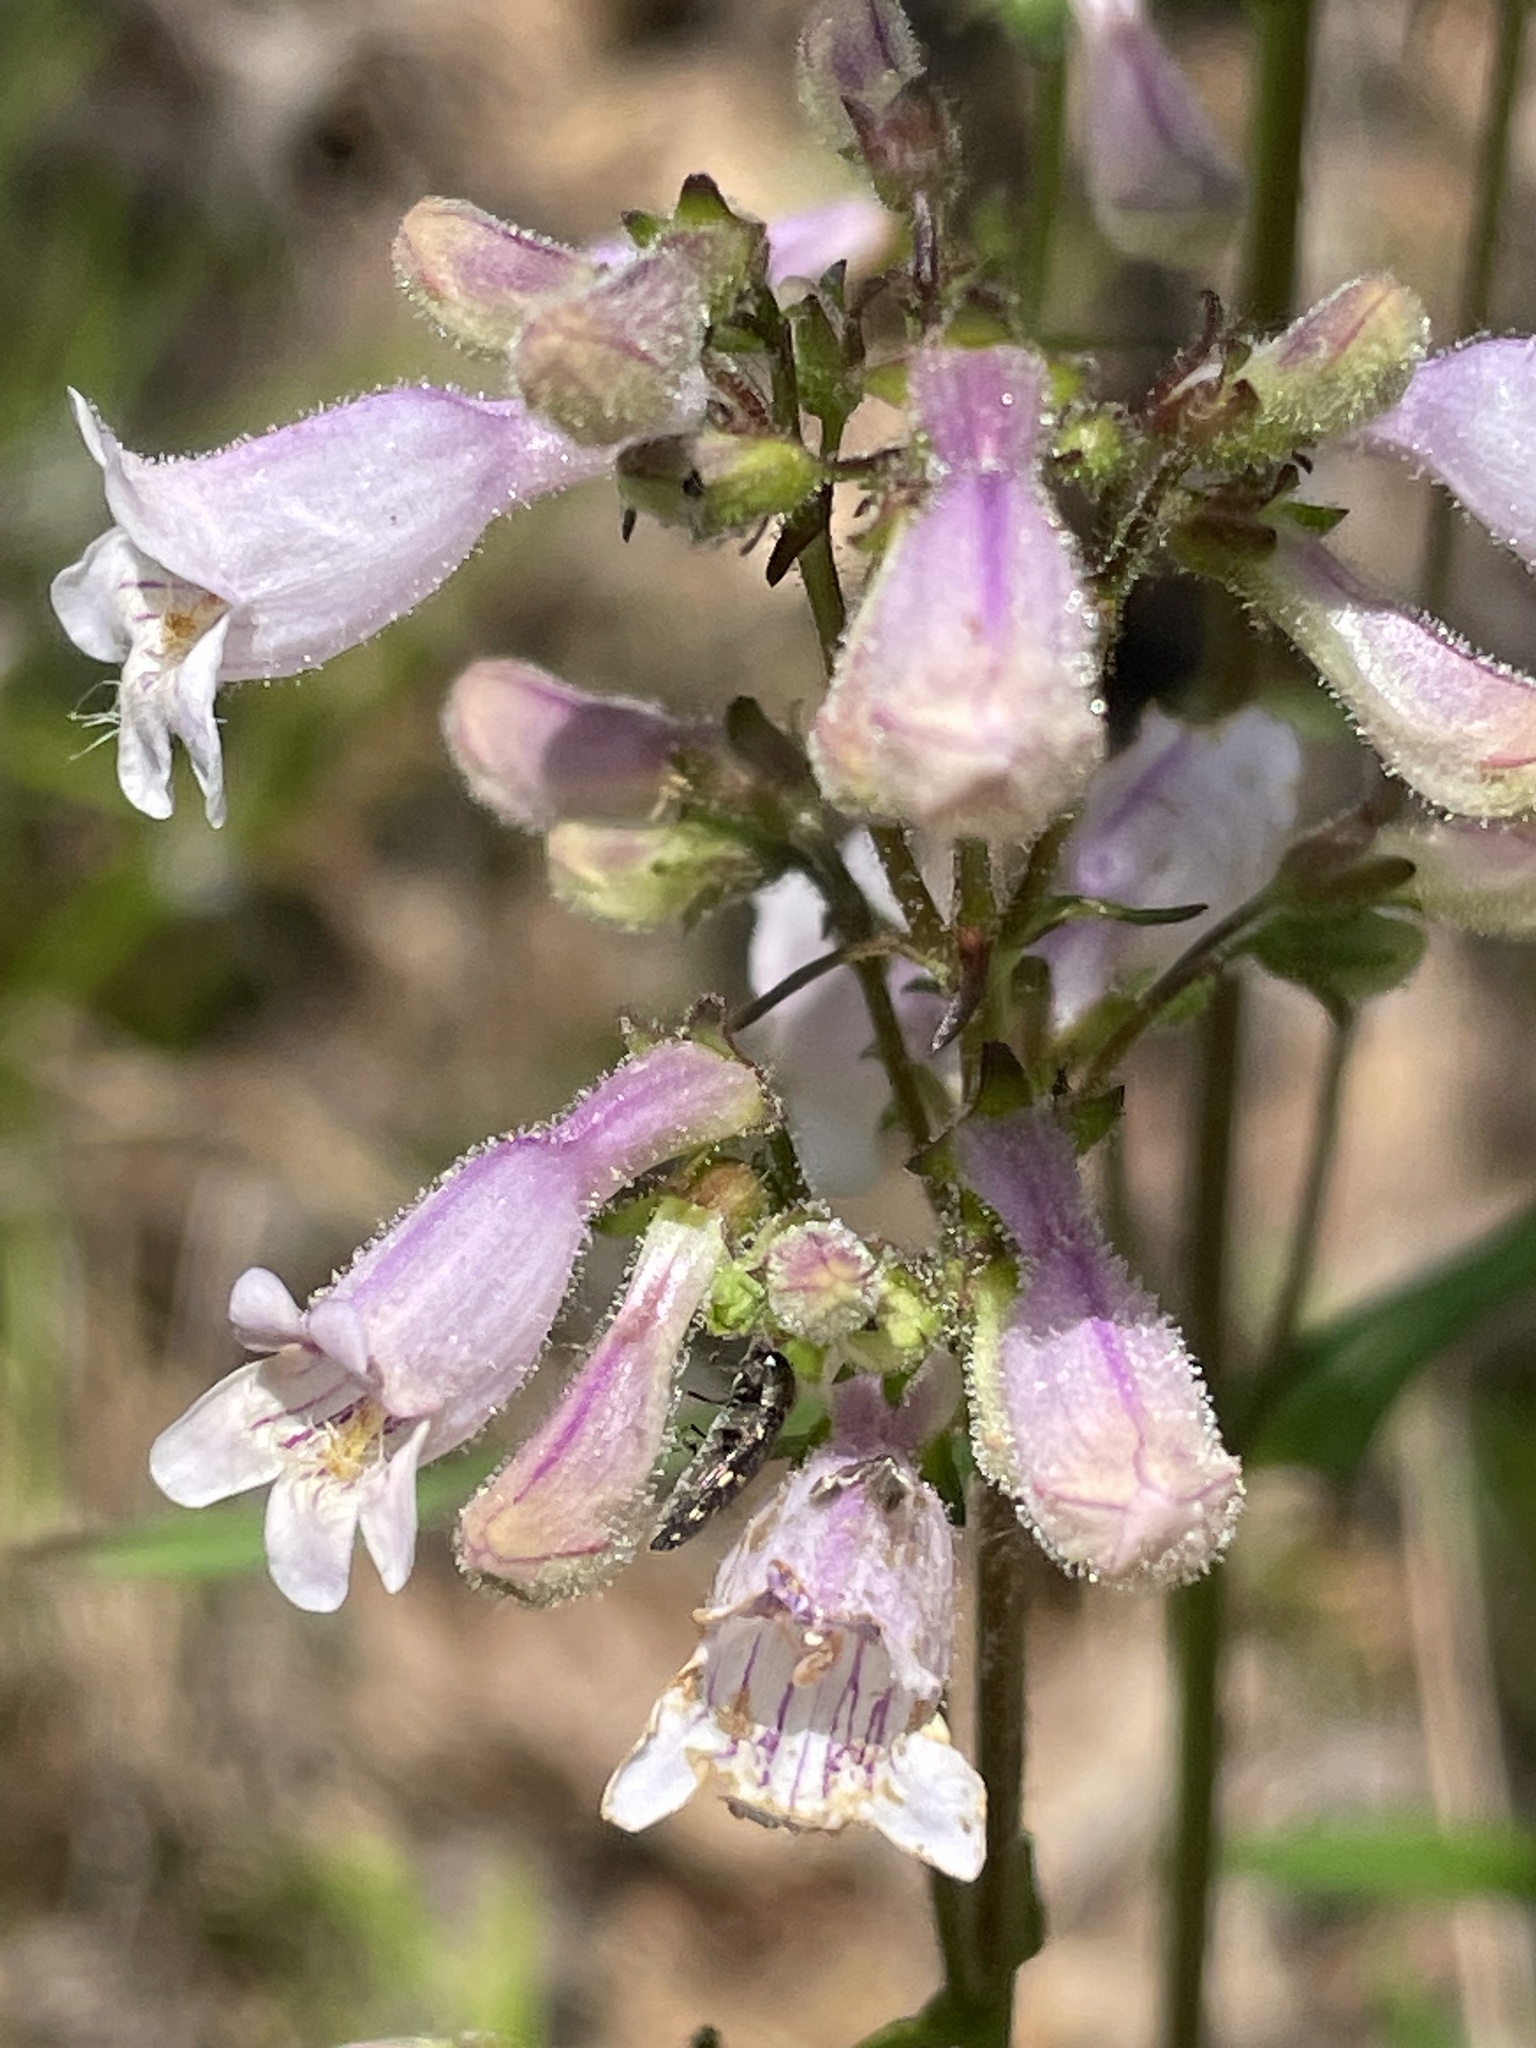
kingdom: Plantae
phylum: Tracheophyta
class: Magnoliopsida
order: Lamiales
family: Plantaginaceae
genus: Penstemon
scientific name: Penstemon laevigatus
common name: Eastern beardtongue
